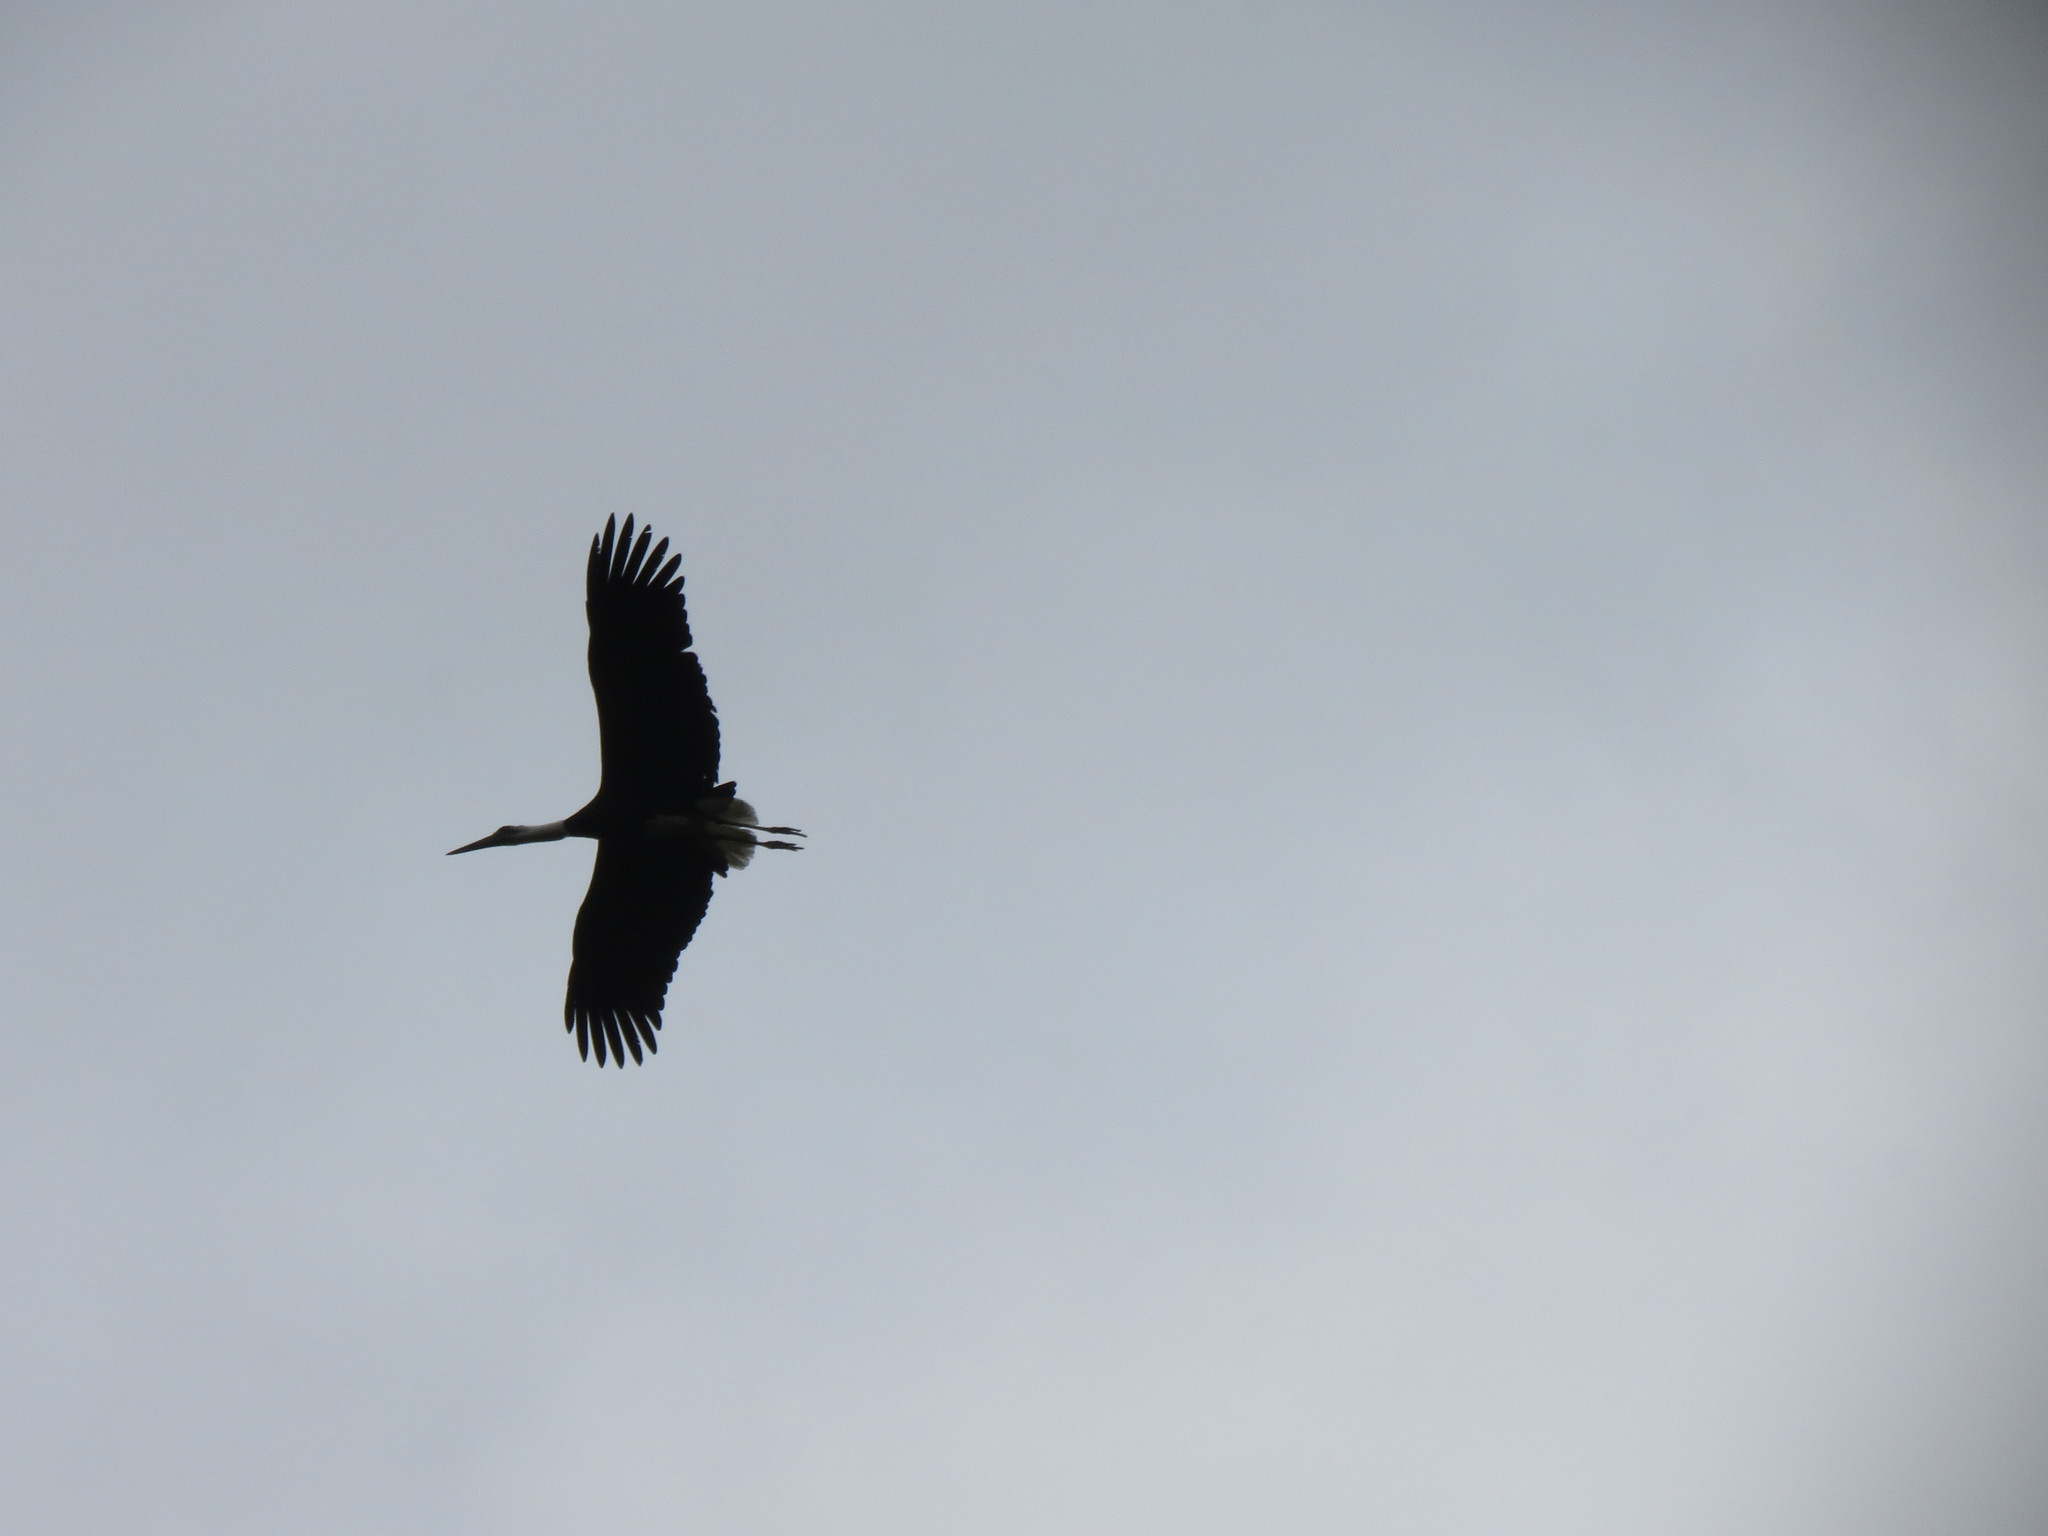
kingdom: Animalia
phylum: Chordata
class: Aves
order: Ciconiiformes
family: Ciconiidae
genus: Ciconia
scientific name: Ciconia microscelis
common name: African woollyneck
